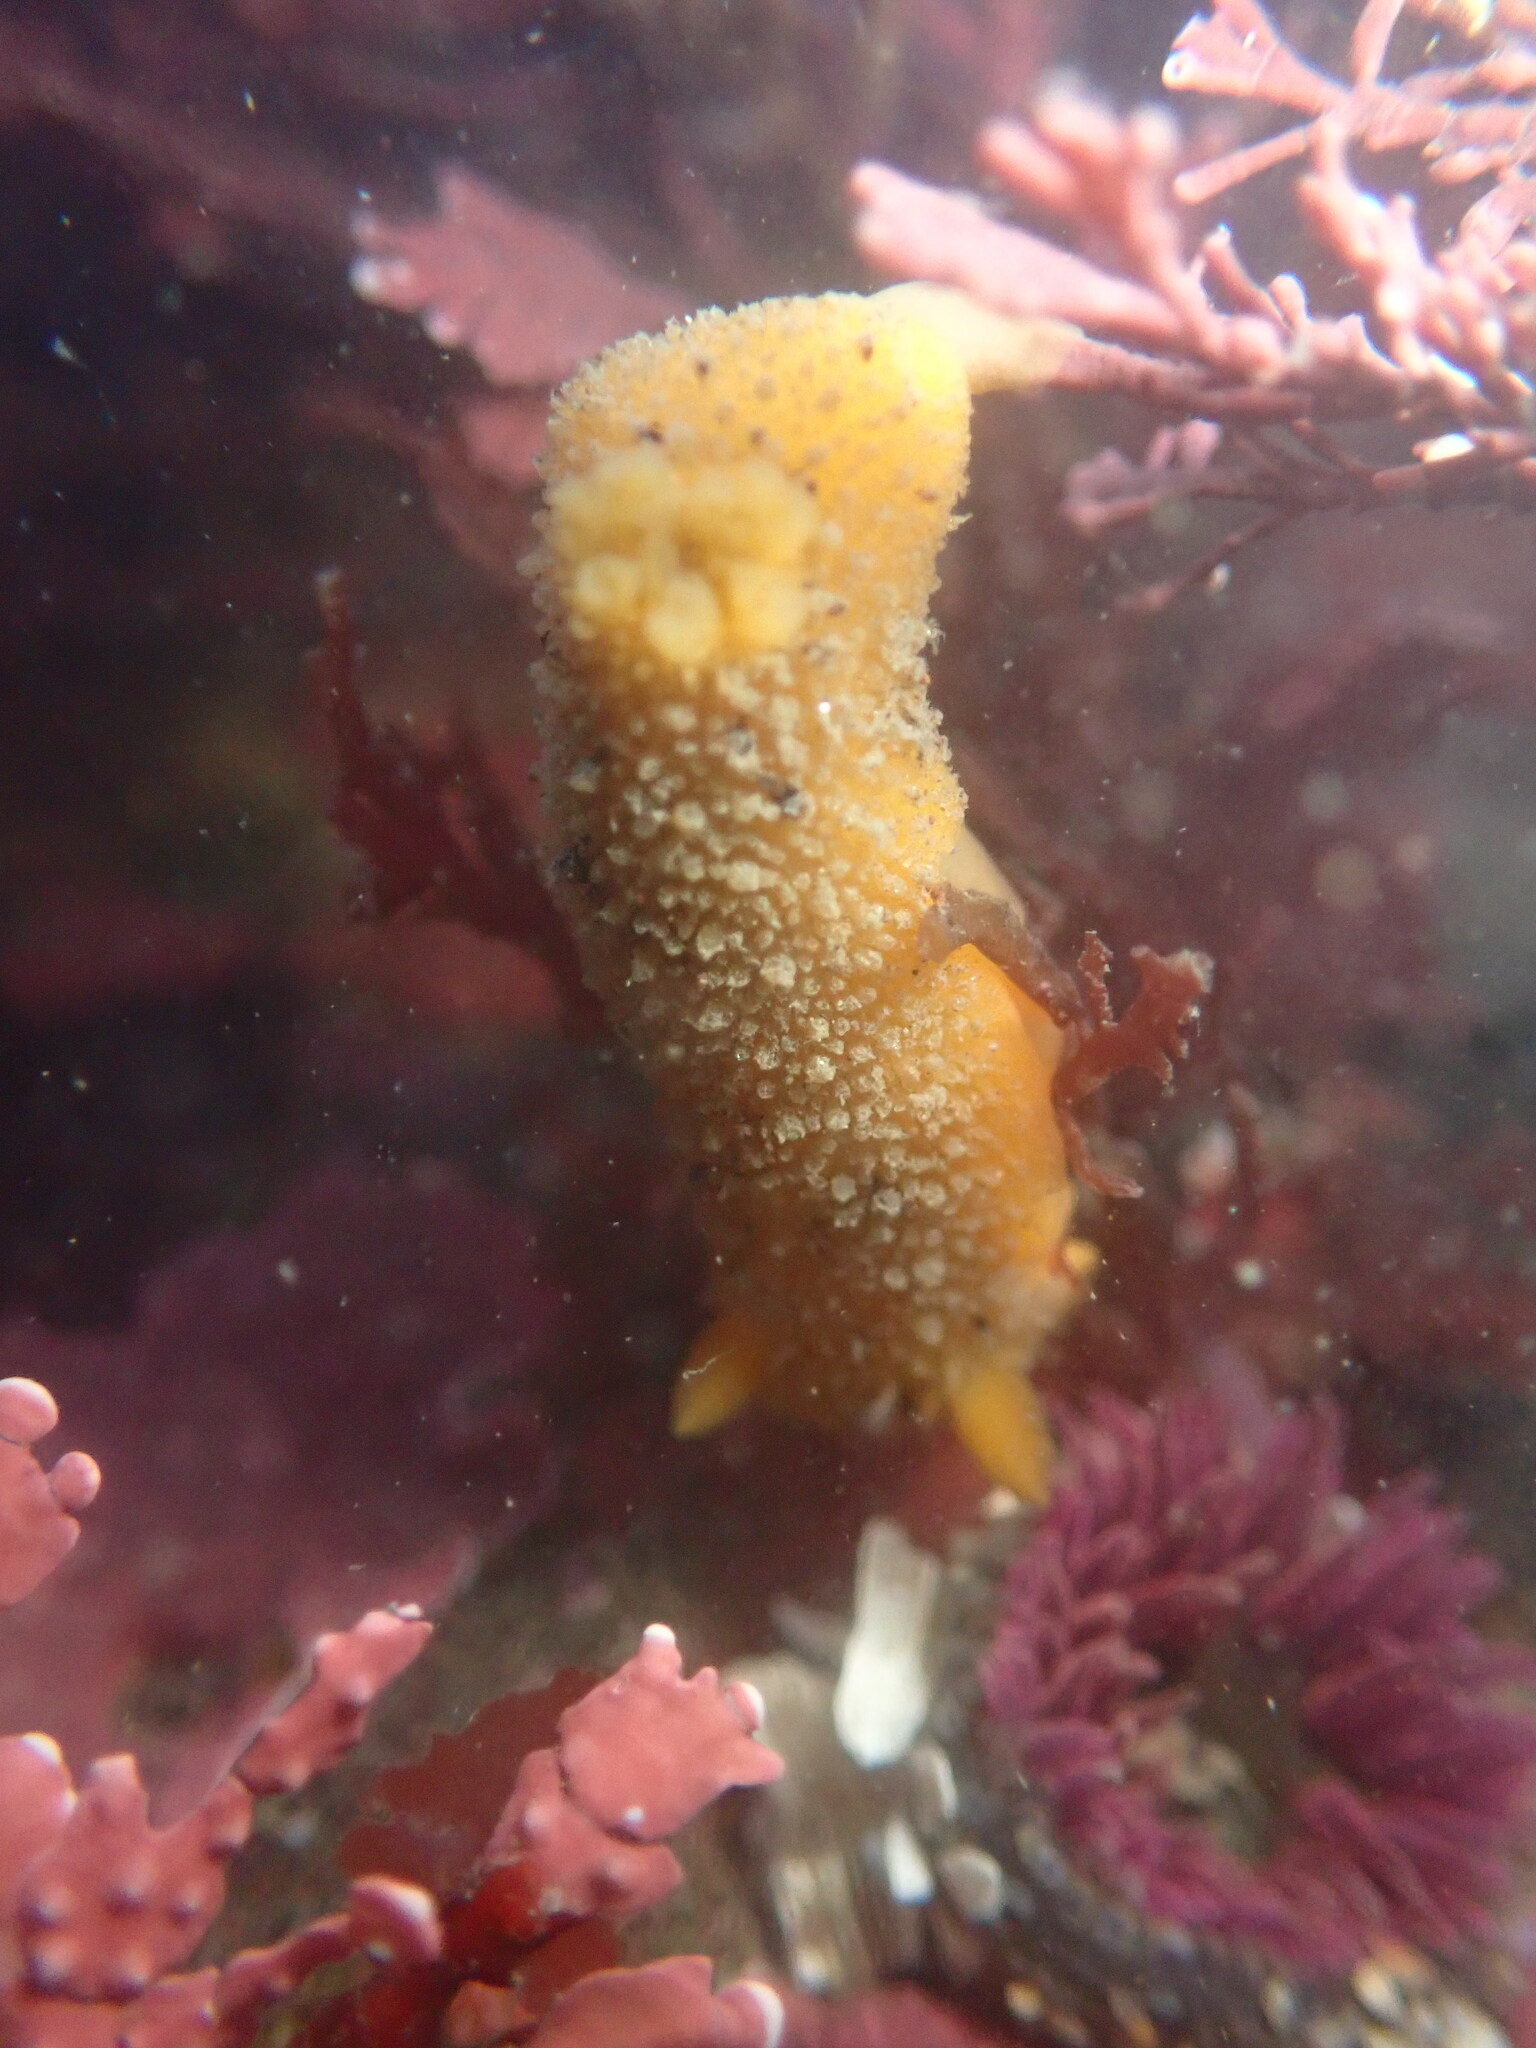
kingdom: Animalia
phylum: Mollusca
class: Gastropoda
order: Nudibranchia
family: Dorididae
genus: Doris
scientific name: Doris montereyensis
